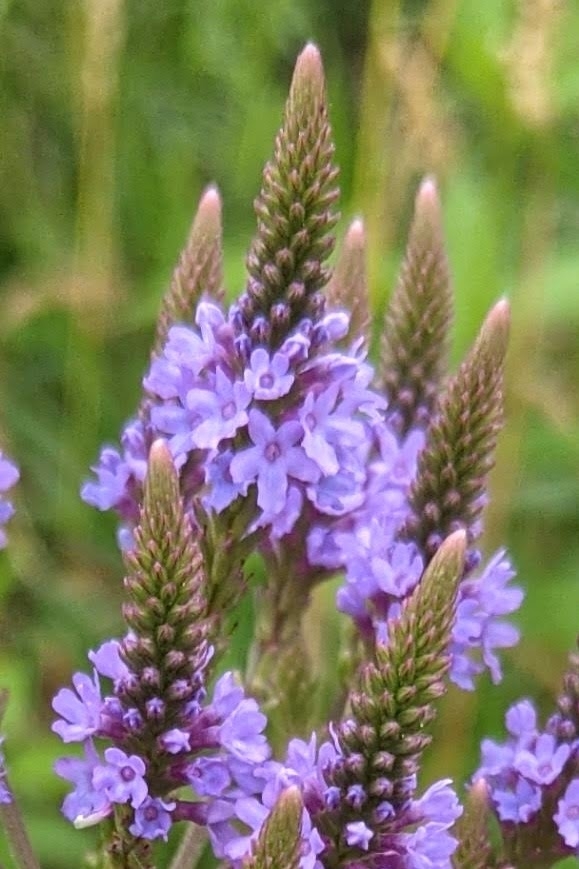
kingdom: Plantae
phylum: Tracheophyta
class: Magnoliopsida
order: Lamiales
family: Verbenaceae
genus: Verbena
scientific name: Verbena hastata
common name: American blue vervain
